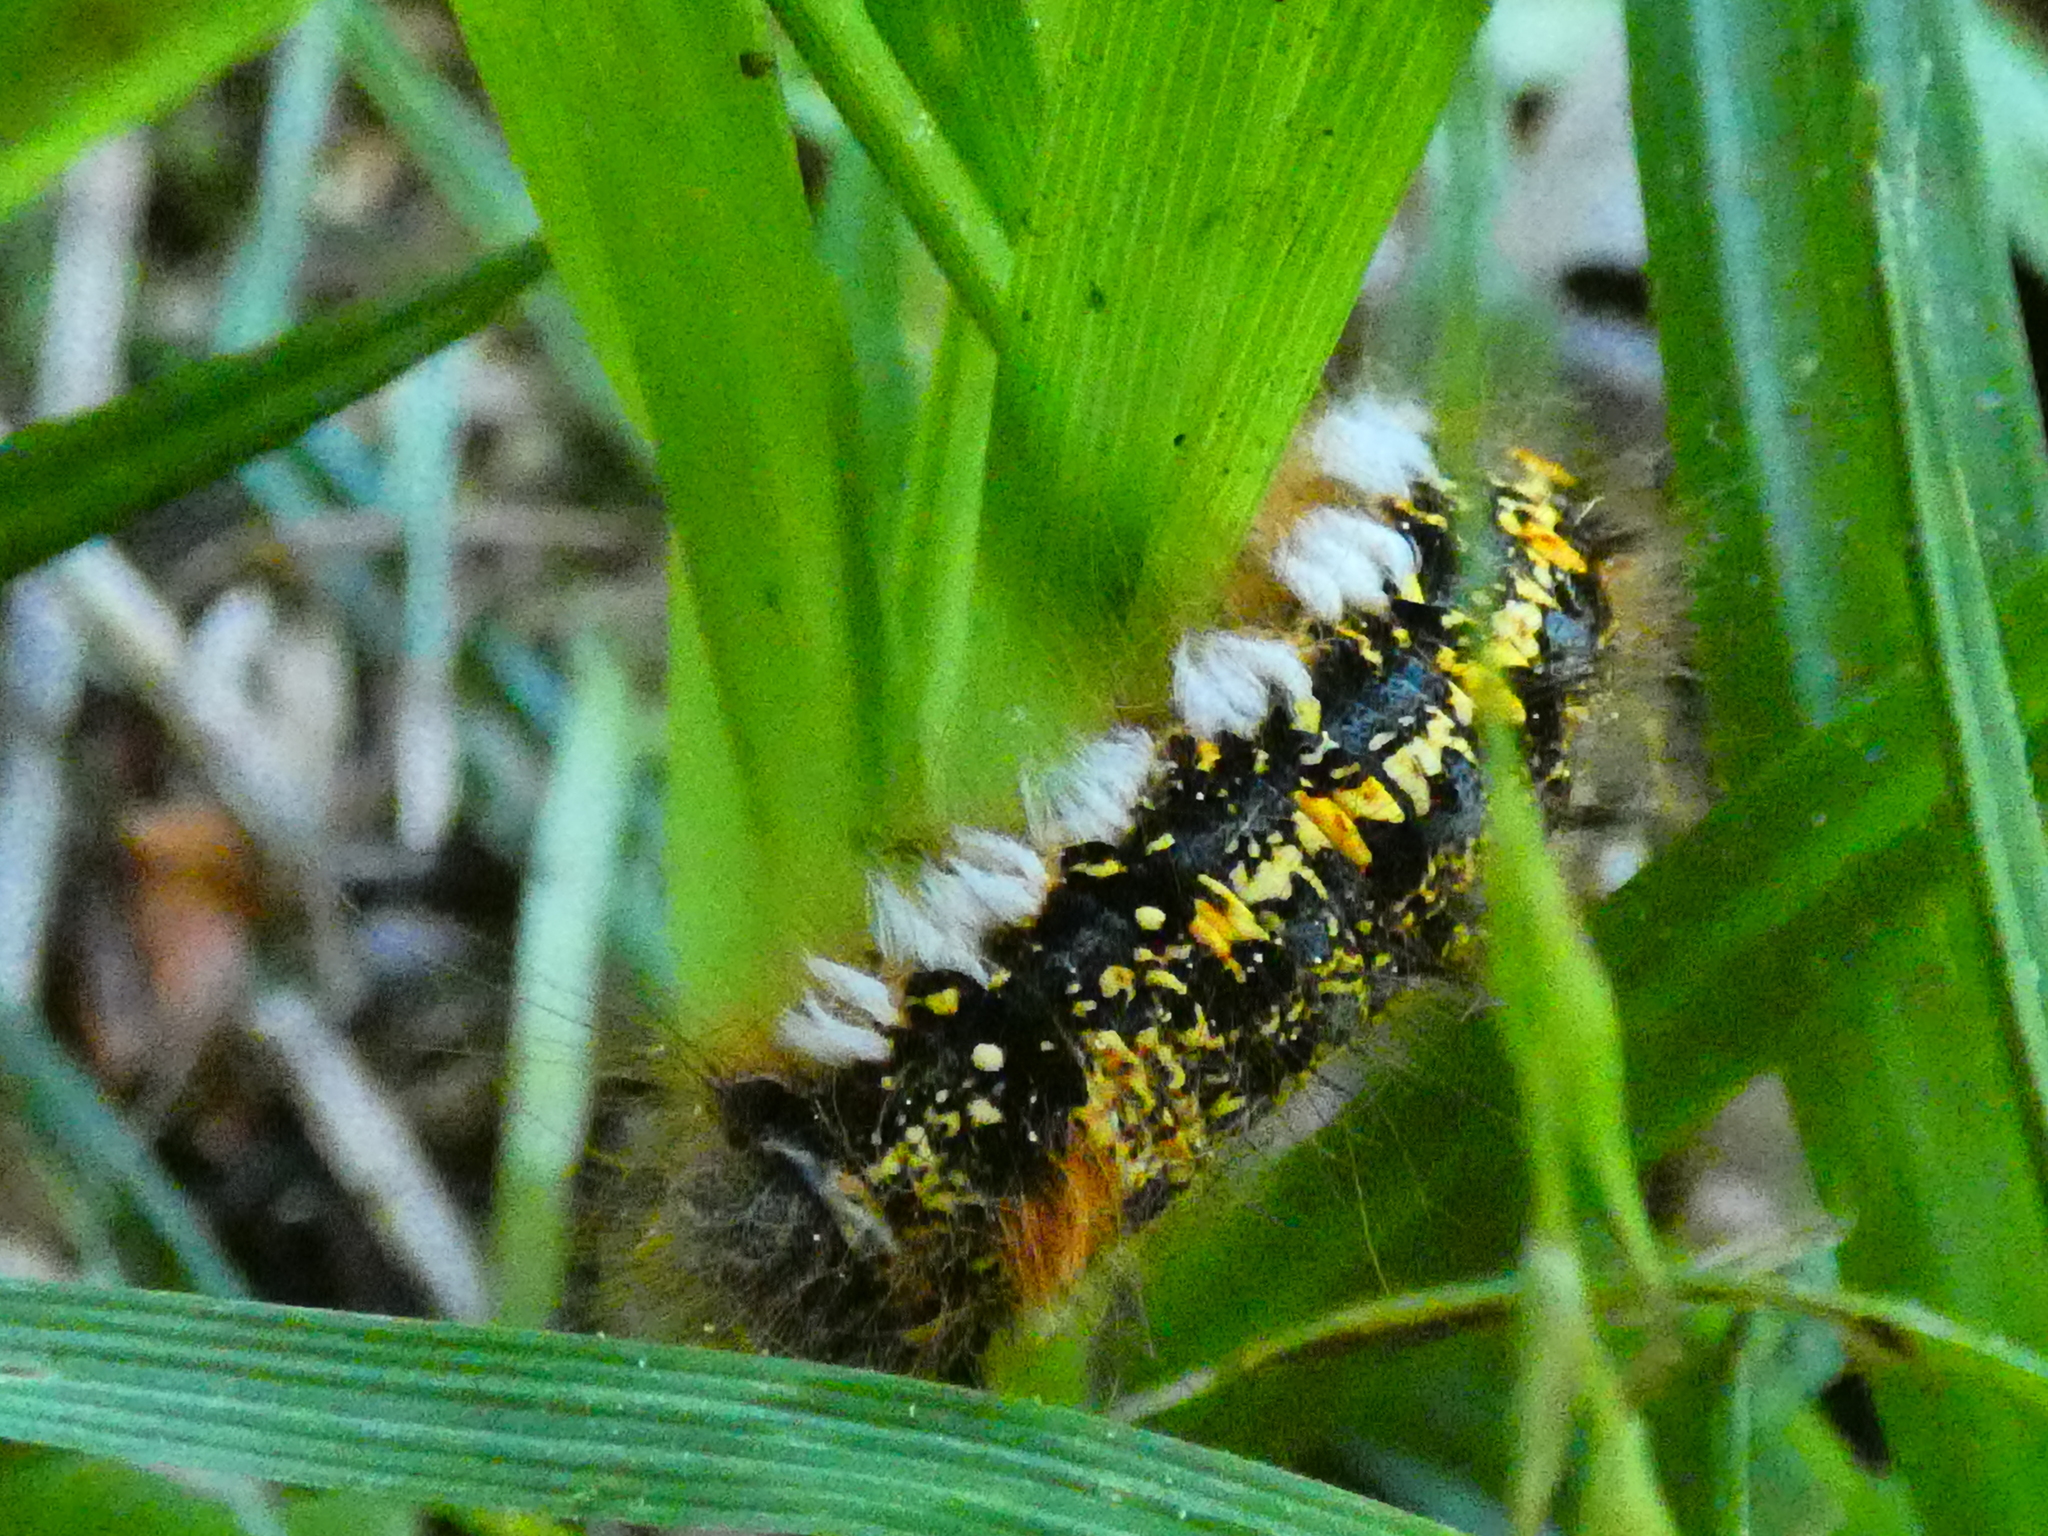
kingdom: Animalia
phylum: Arthropoda
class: Insecta
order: Lepidoptera
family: Lasiocampidae
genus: Euthrix
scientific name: Euthrix potatoria
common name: Drinker
